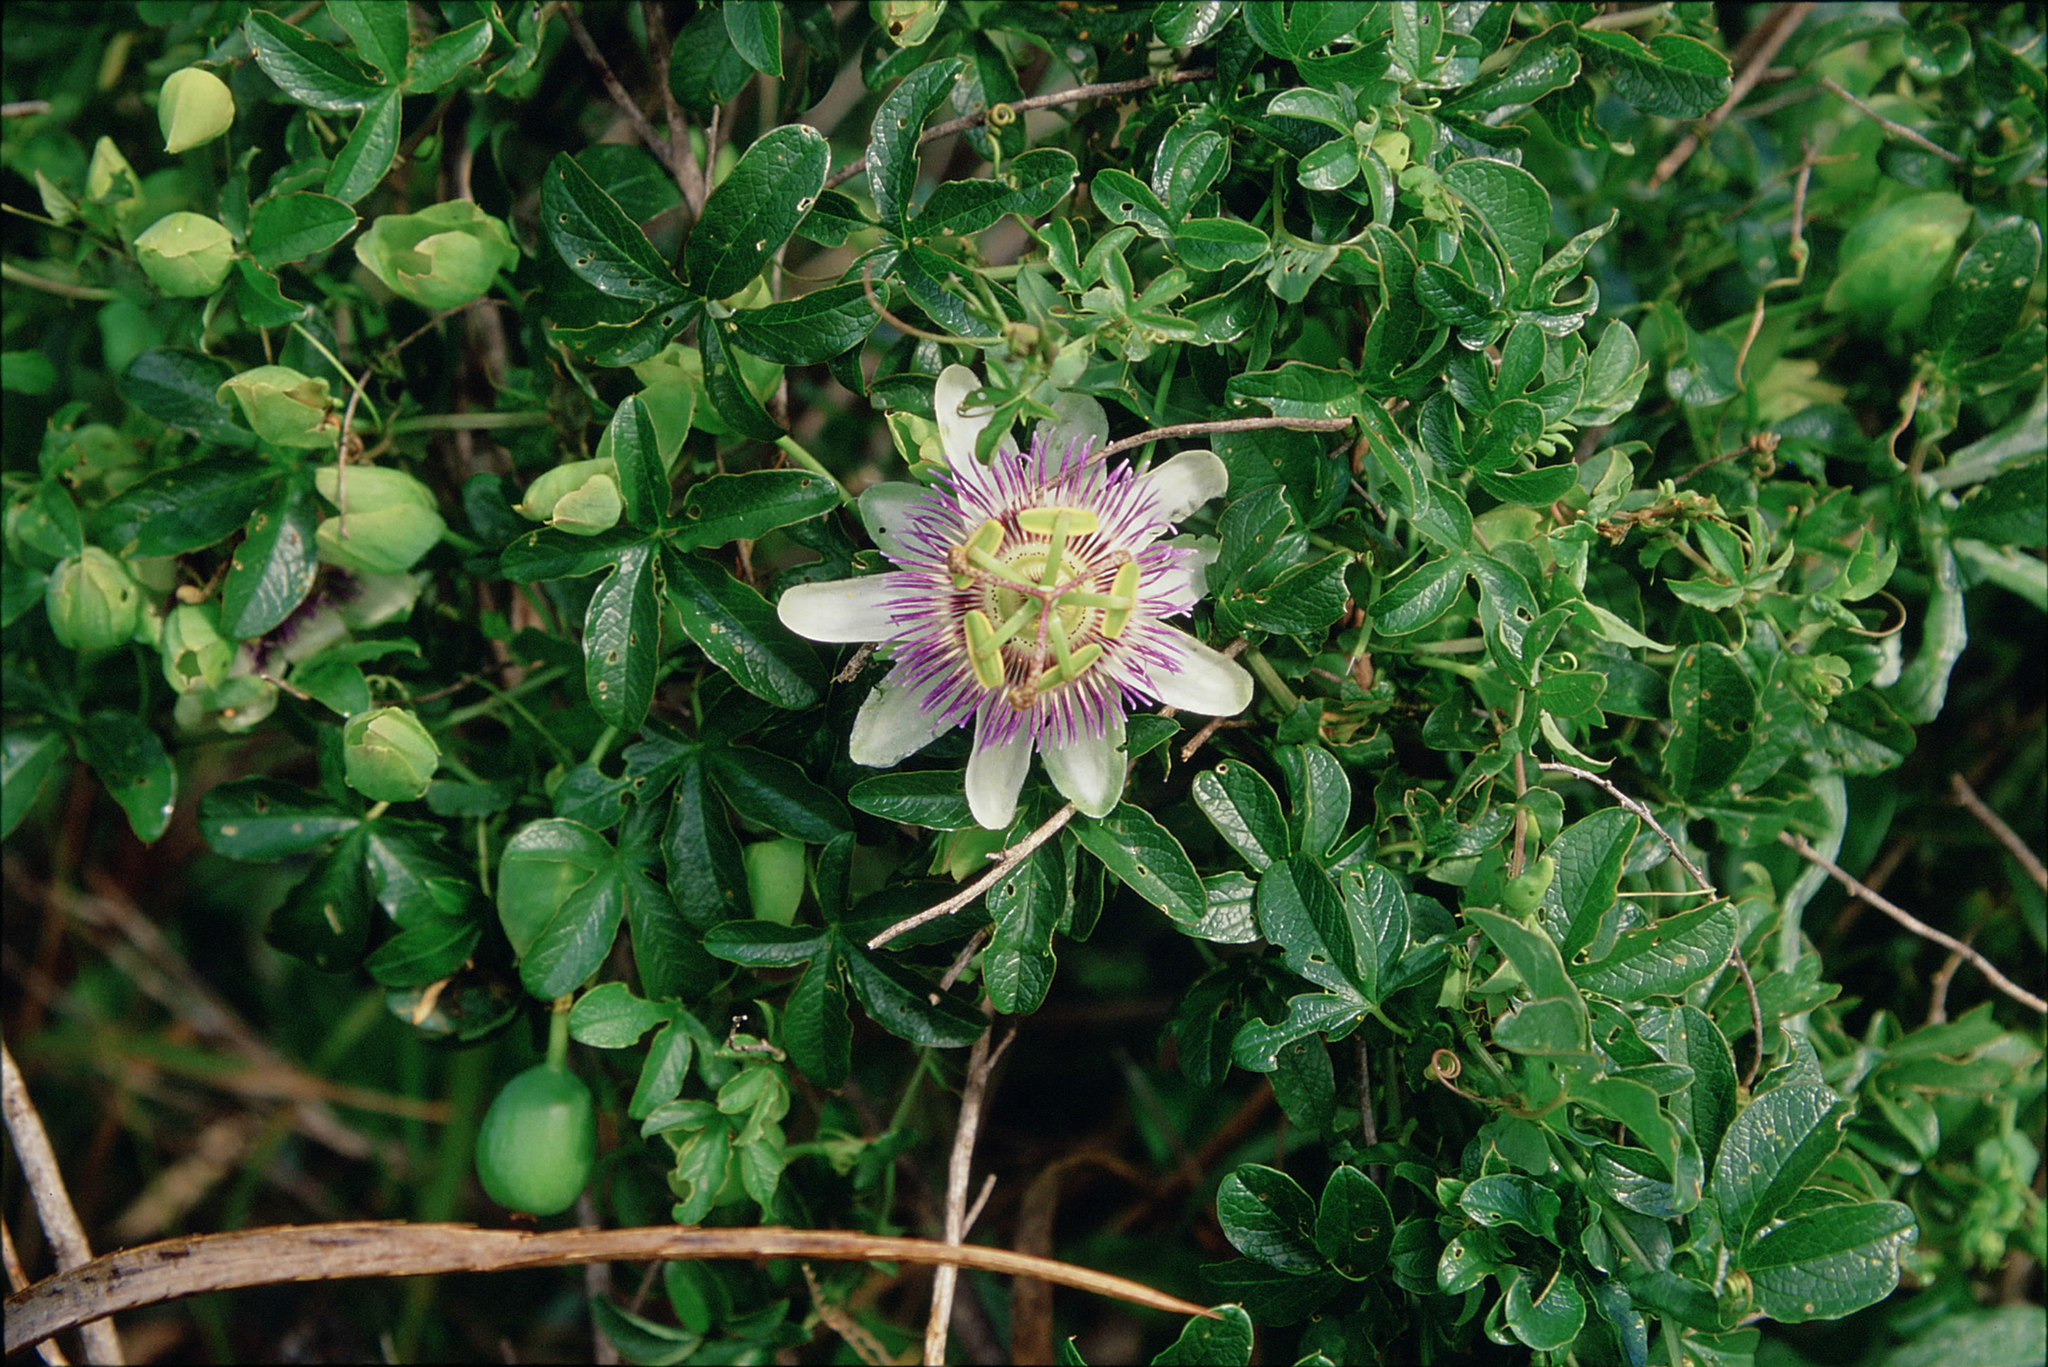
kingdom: Plantae
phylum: Tracheophyta
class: Magnoliopsida
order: Malpighiales
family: Passifloraceae
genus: Passiflora
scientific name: Passiflora caerulea
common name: Blue passionflower
